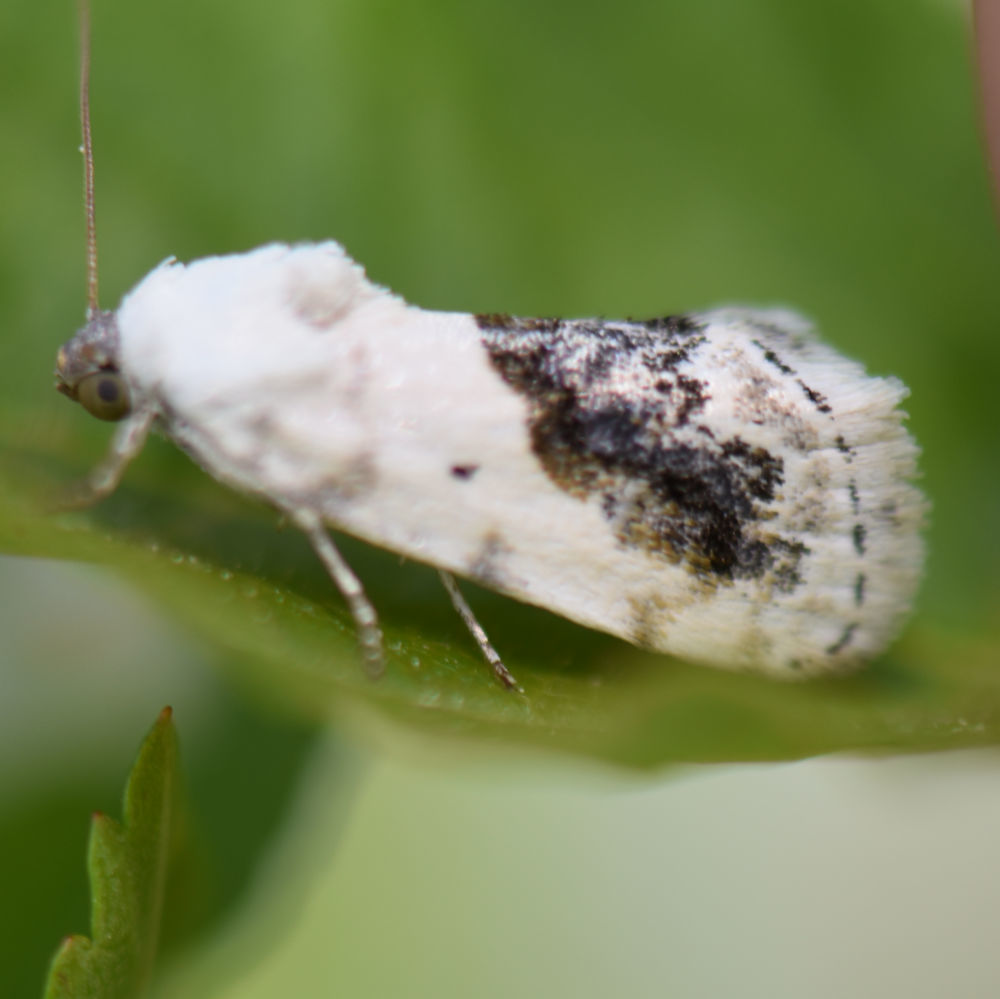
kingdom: Animalia
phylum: Arthropoda
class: Insecta
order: Lepidoptera
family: Noctuidae
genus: Acontia
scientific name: Acontia erastrioides
